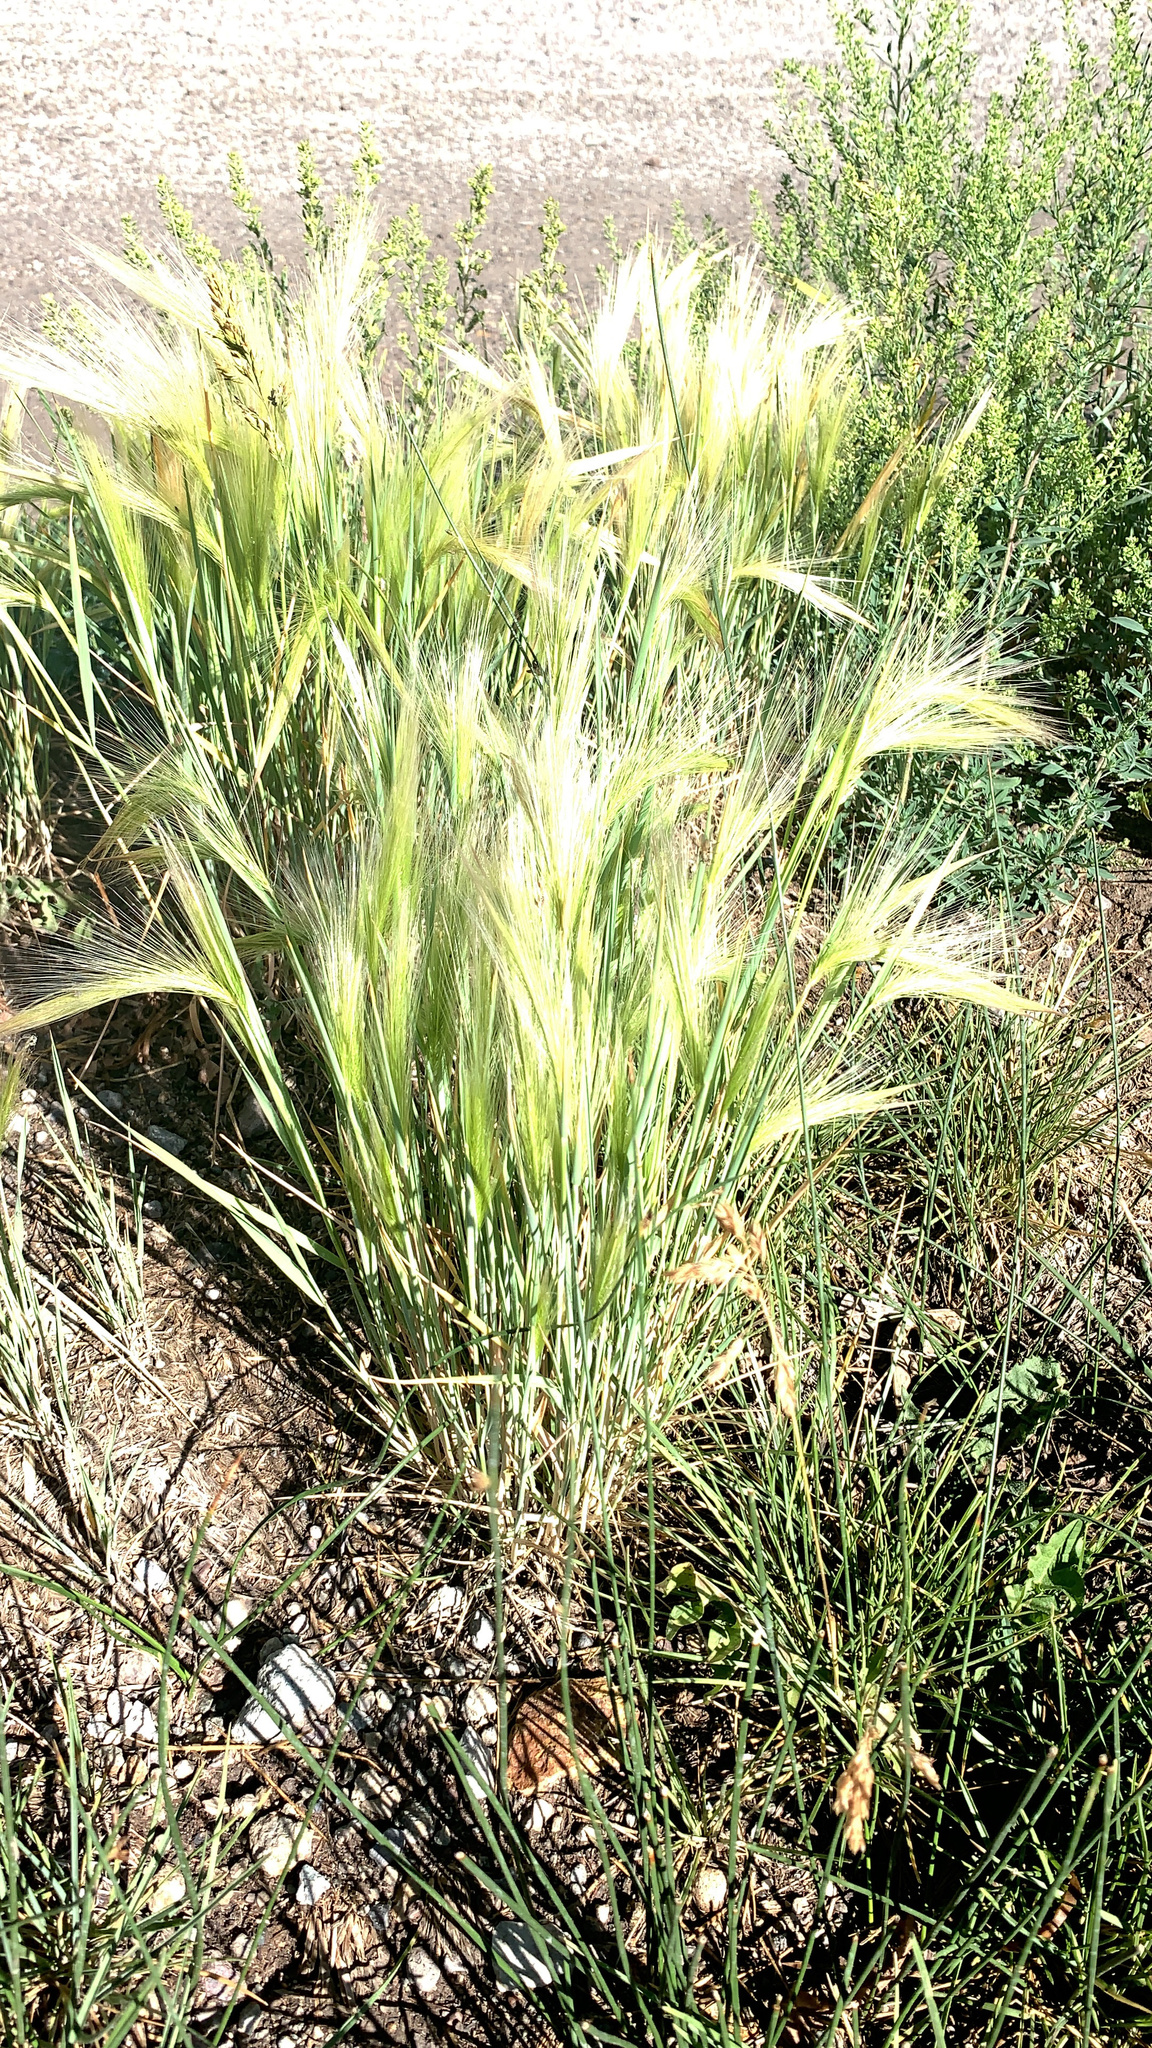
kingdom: Plantae
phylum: Tracheophyta
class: Liliopsida
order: Poales
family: Poaceae
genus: Hordeum
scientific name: Hordeum jubatum
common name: Foxtail barley
